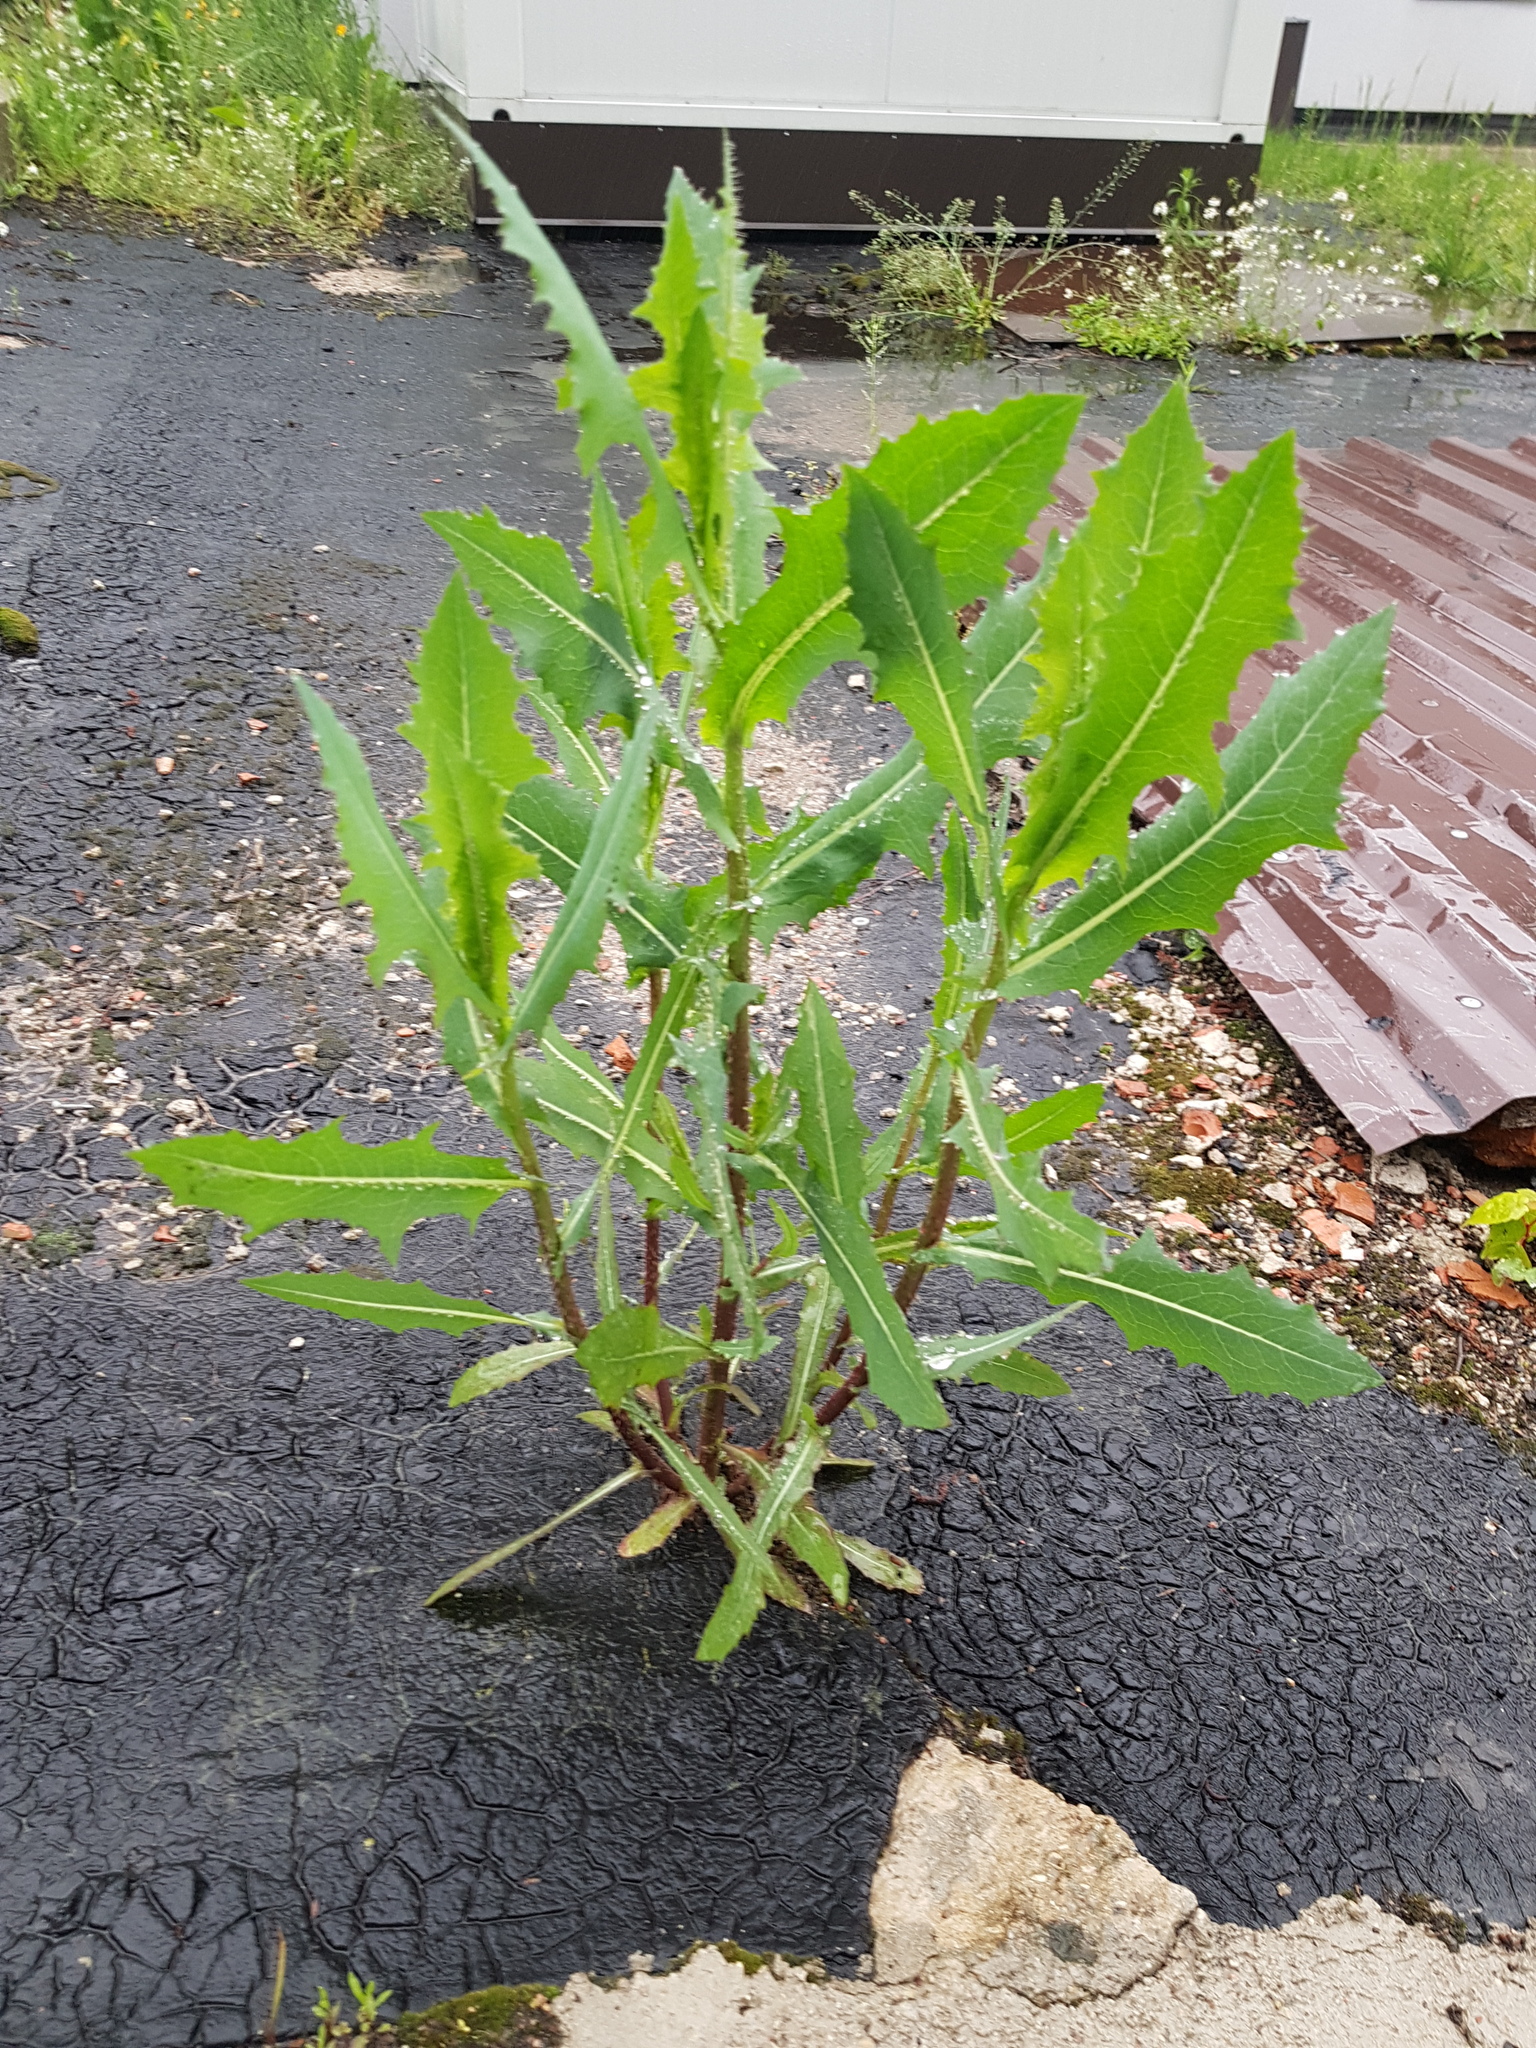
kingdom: Plantae
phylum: Tracheophyta
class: Magnoliopsida
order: Asterales
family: Asteraceae
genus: Lactuca
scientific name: Lactuca serriola
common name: Prickly lettuce
